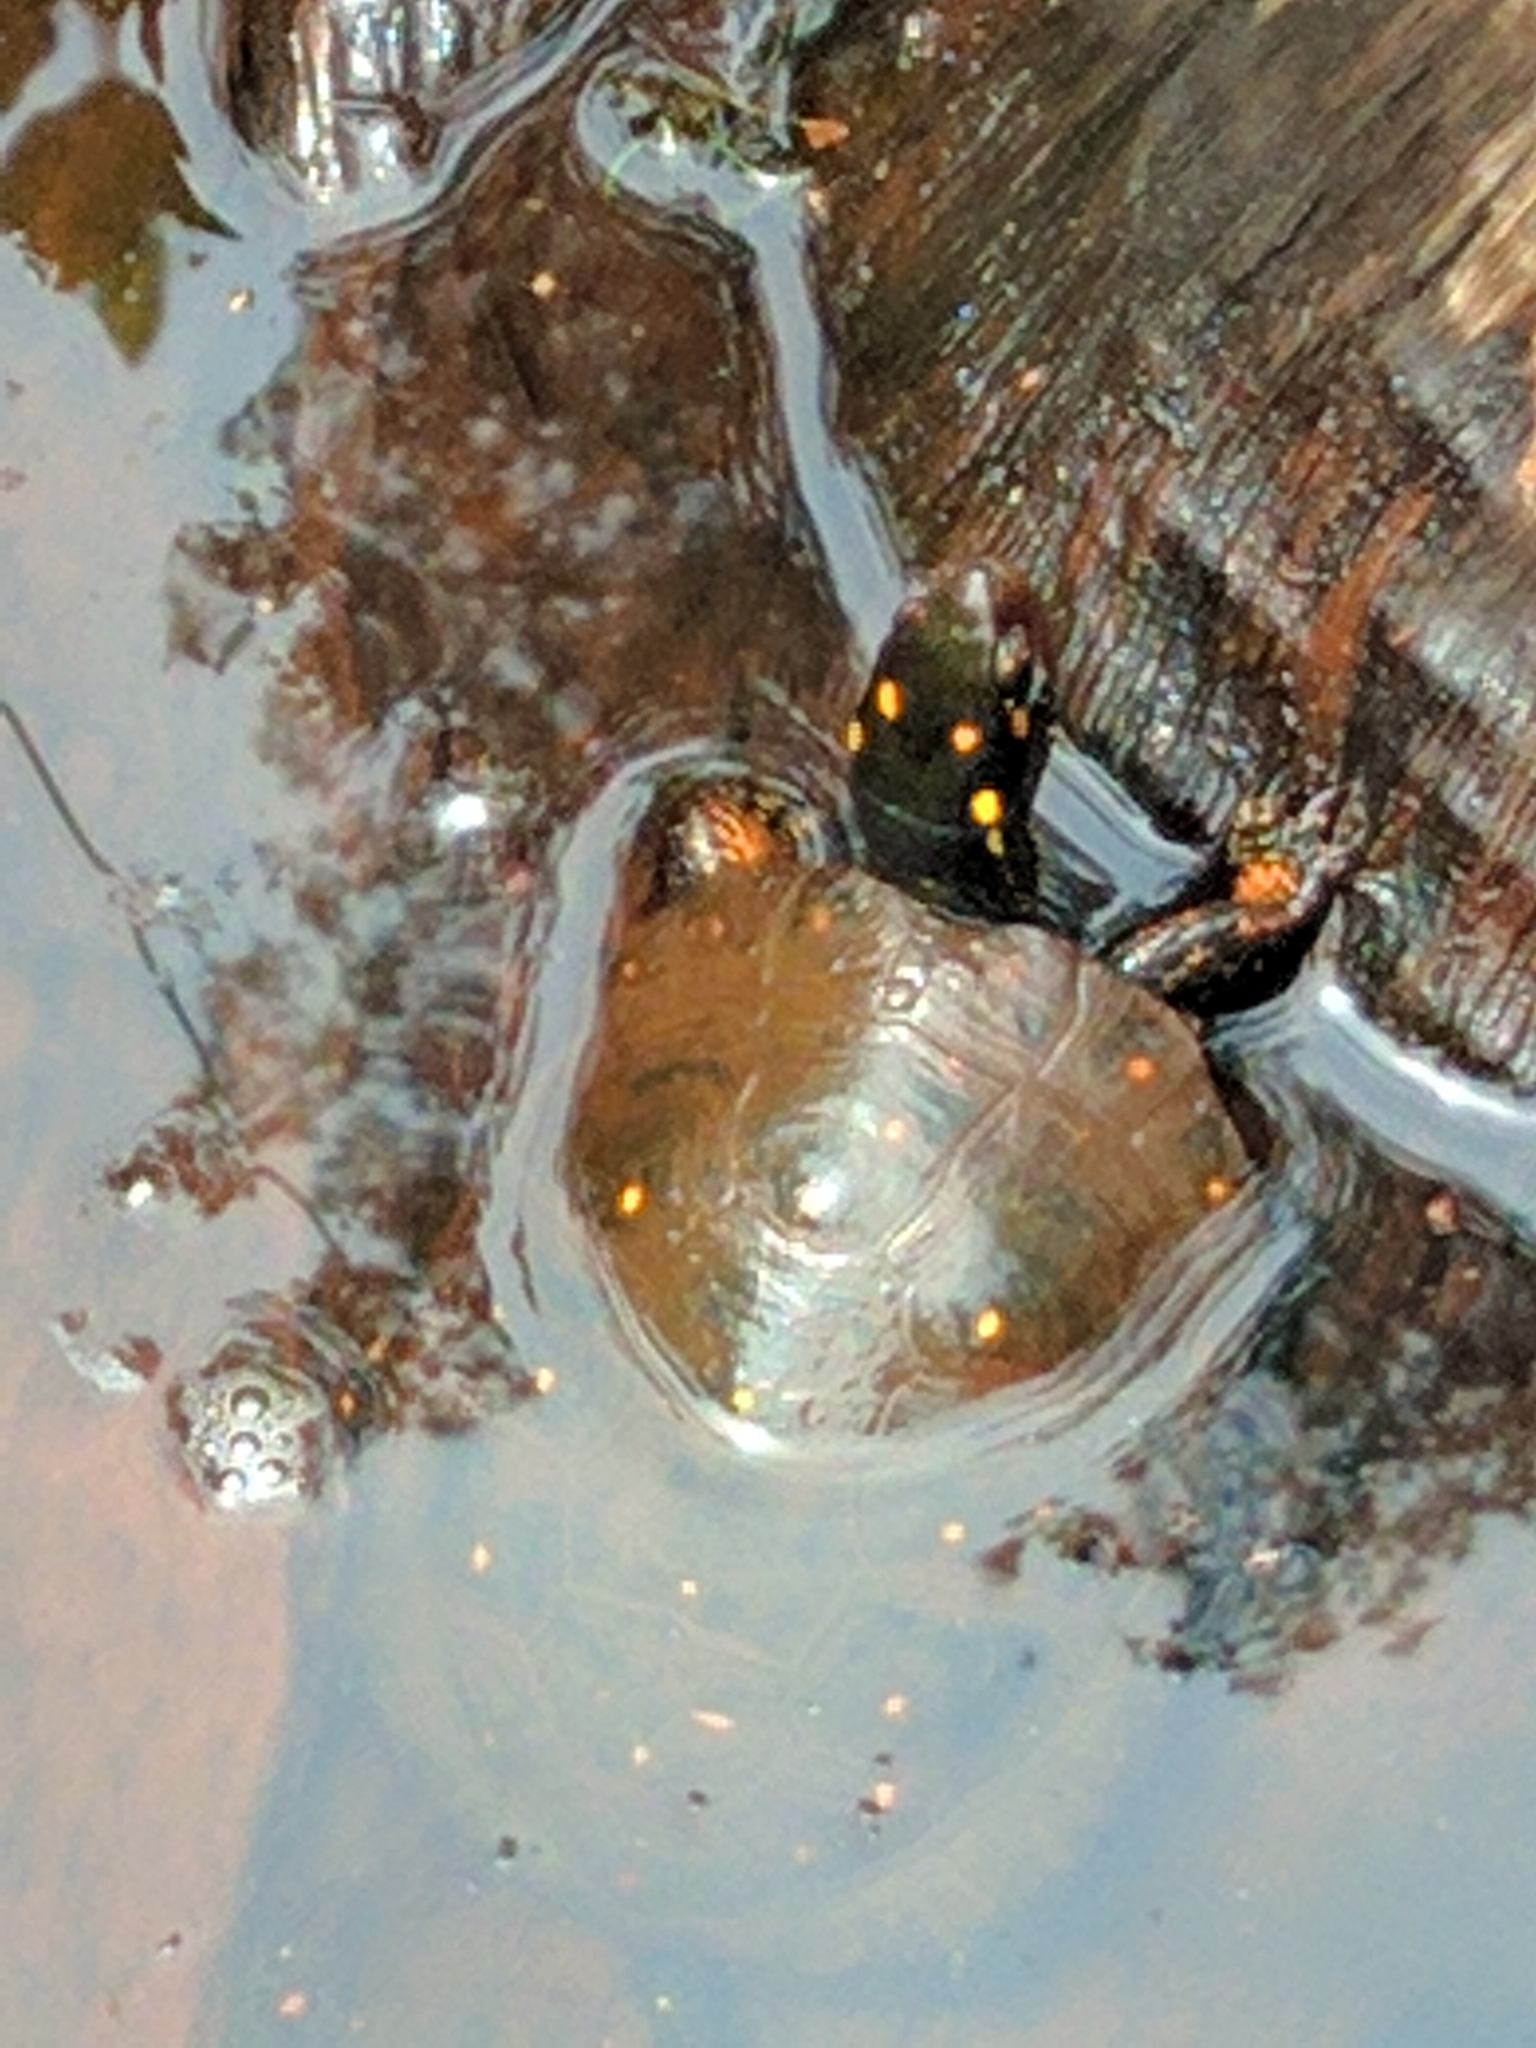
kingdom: Animalia
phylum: Chordata
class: Testudines
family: Emydidae
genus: Clemmys
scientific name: Clemmys guttata
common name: Spotted turtle
